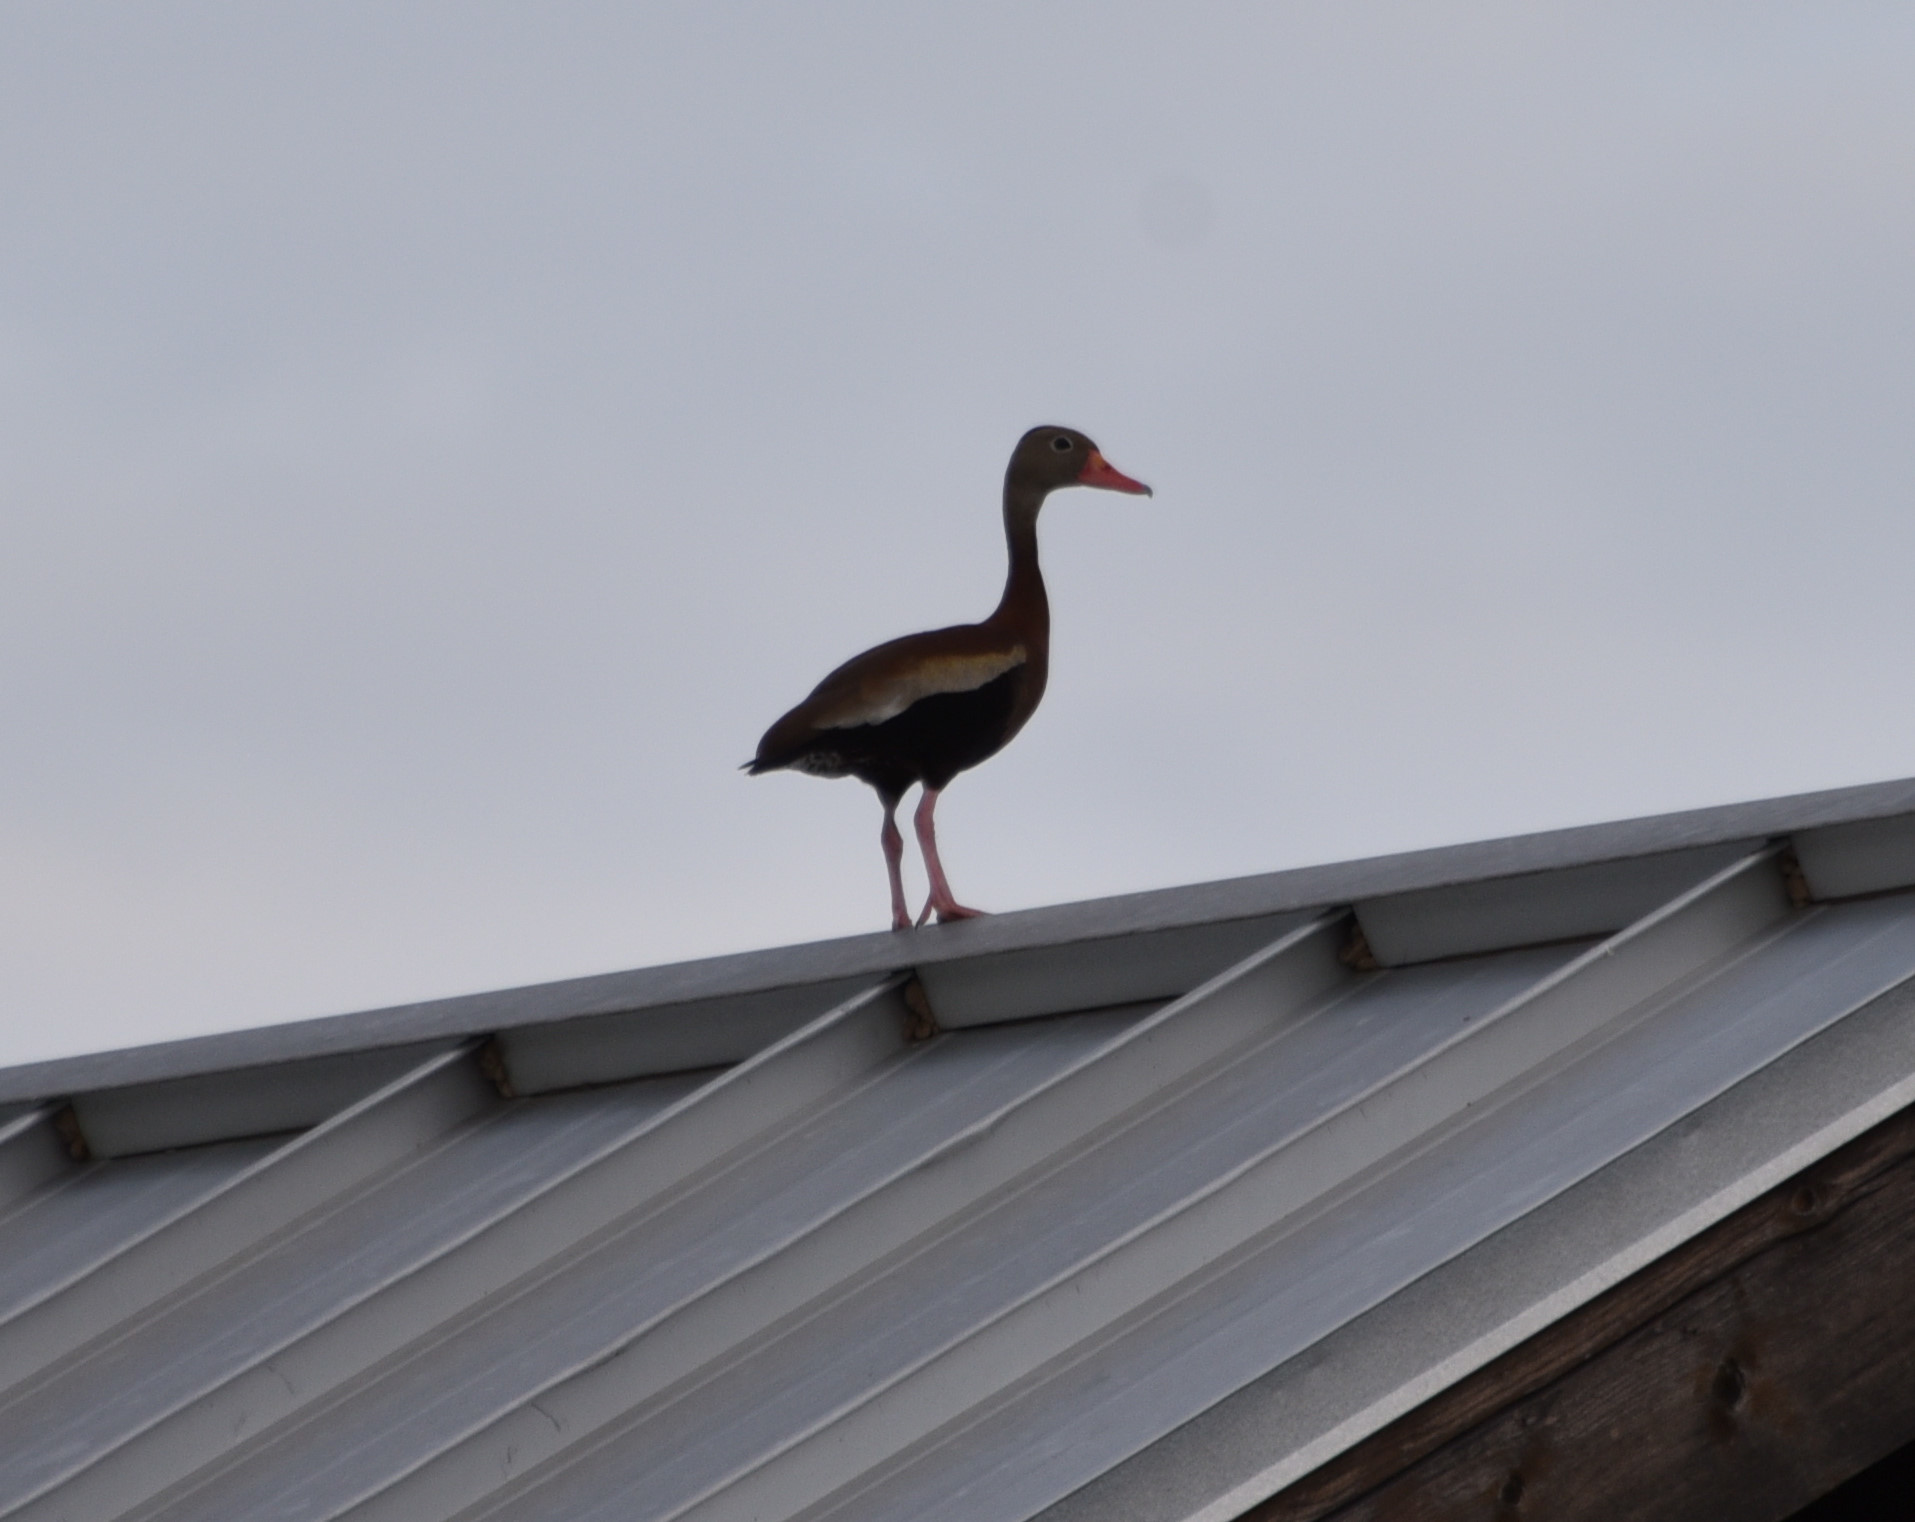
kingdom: Animalia
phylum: Chordata
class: Aves
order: Anseriformes
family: Anatidae
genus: Dendrocygna
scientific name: Dendrocygna autumnalis
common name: Black-bellied whistling duck
